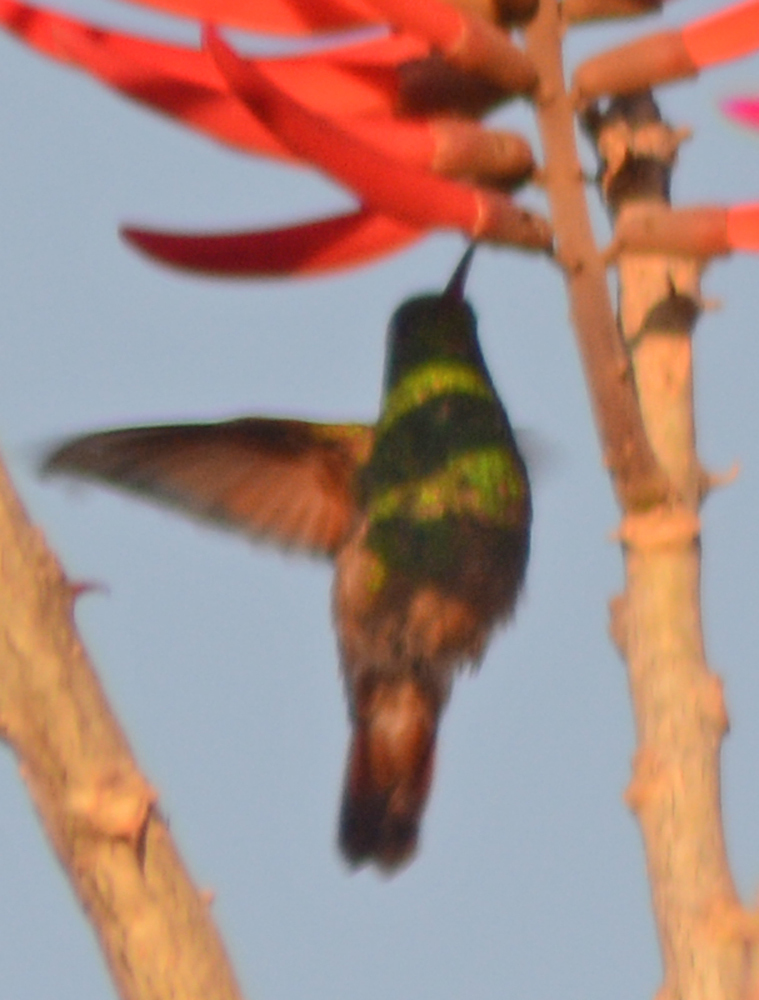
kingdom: Animalia
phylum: Chordata
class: Aves
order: Apodiformes
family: Trochilidae
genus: Saucerottia
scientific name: Saucerottia beryllina
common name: Berylline hummingbird
